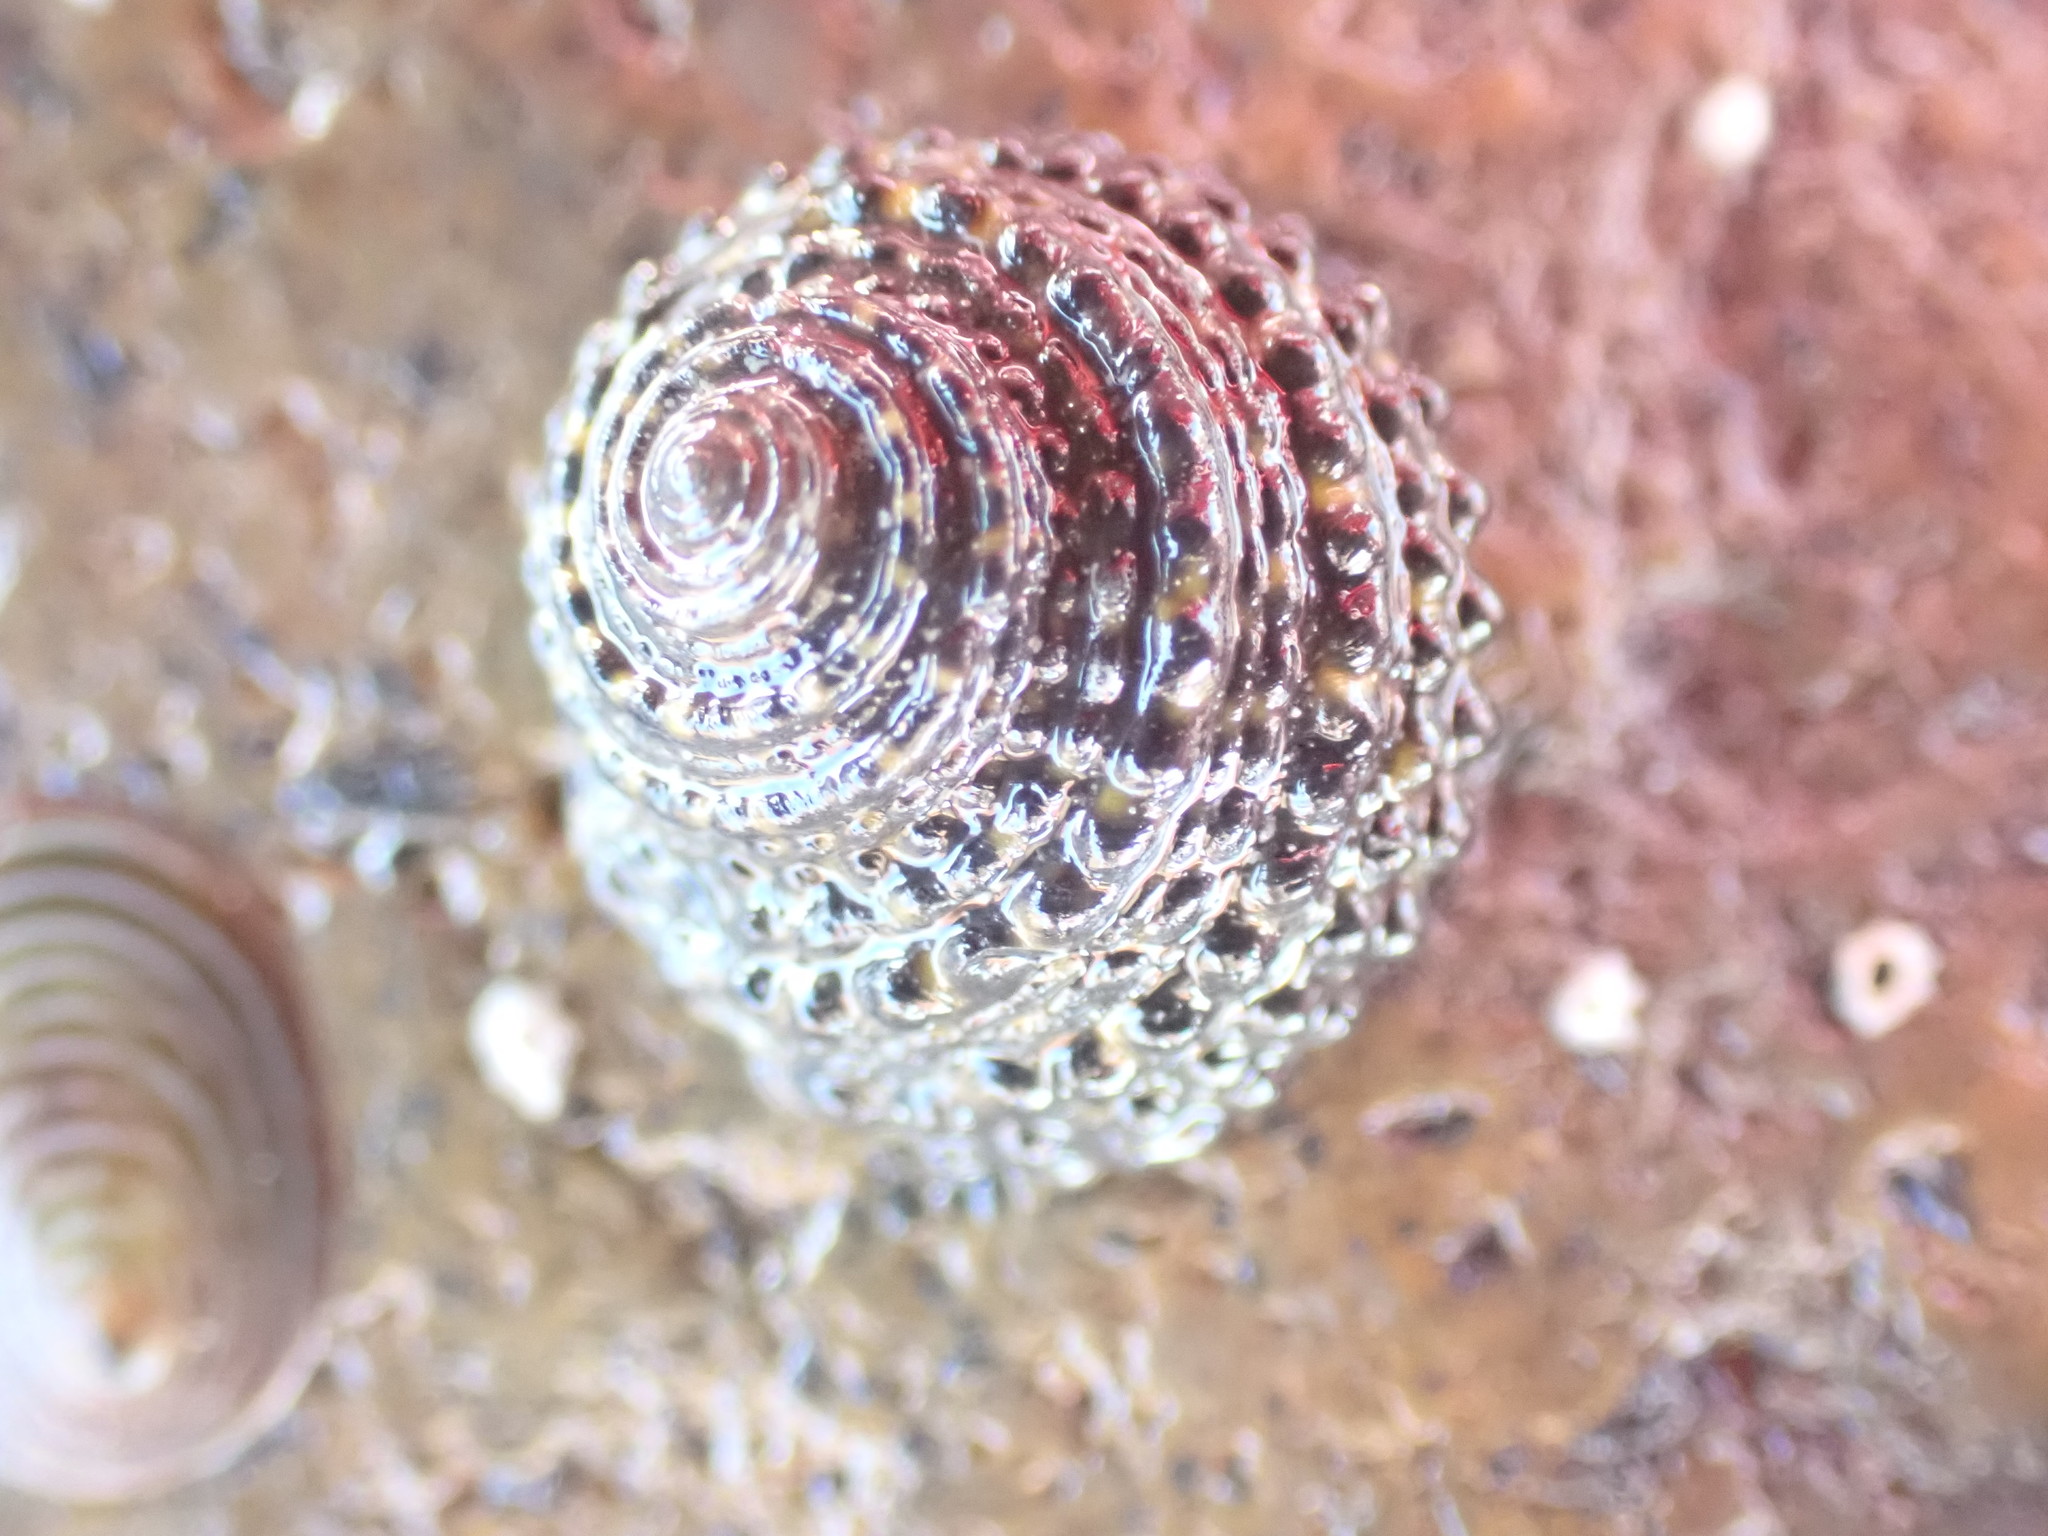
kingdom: Animalia
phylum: Mollusca
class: Gastropoda
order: Trochida
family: Trochidae
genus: Diloma
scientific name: Diloma bicanaliculatum
